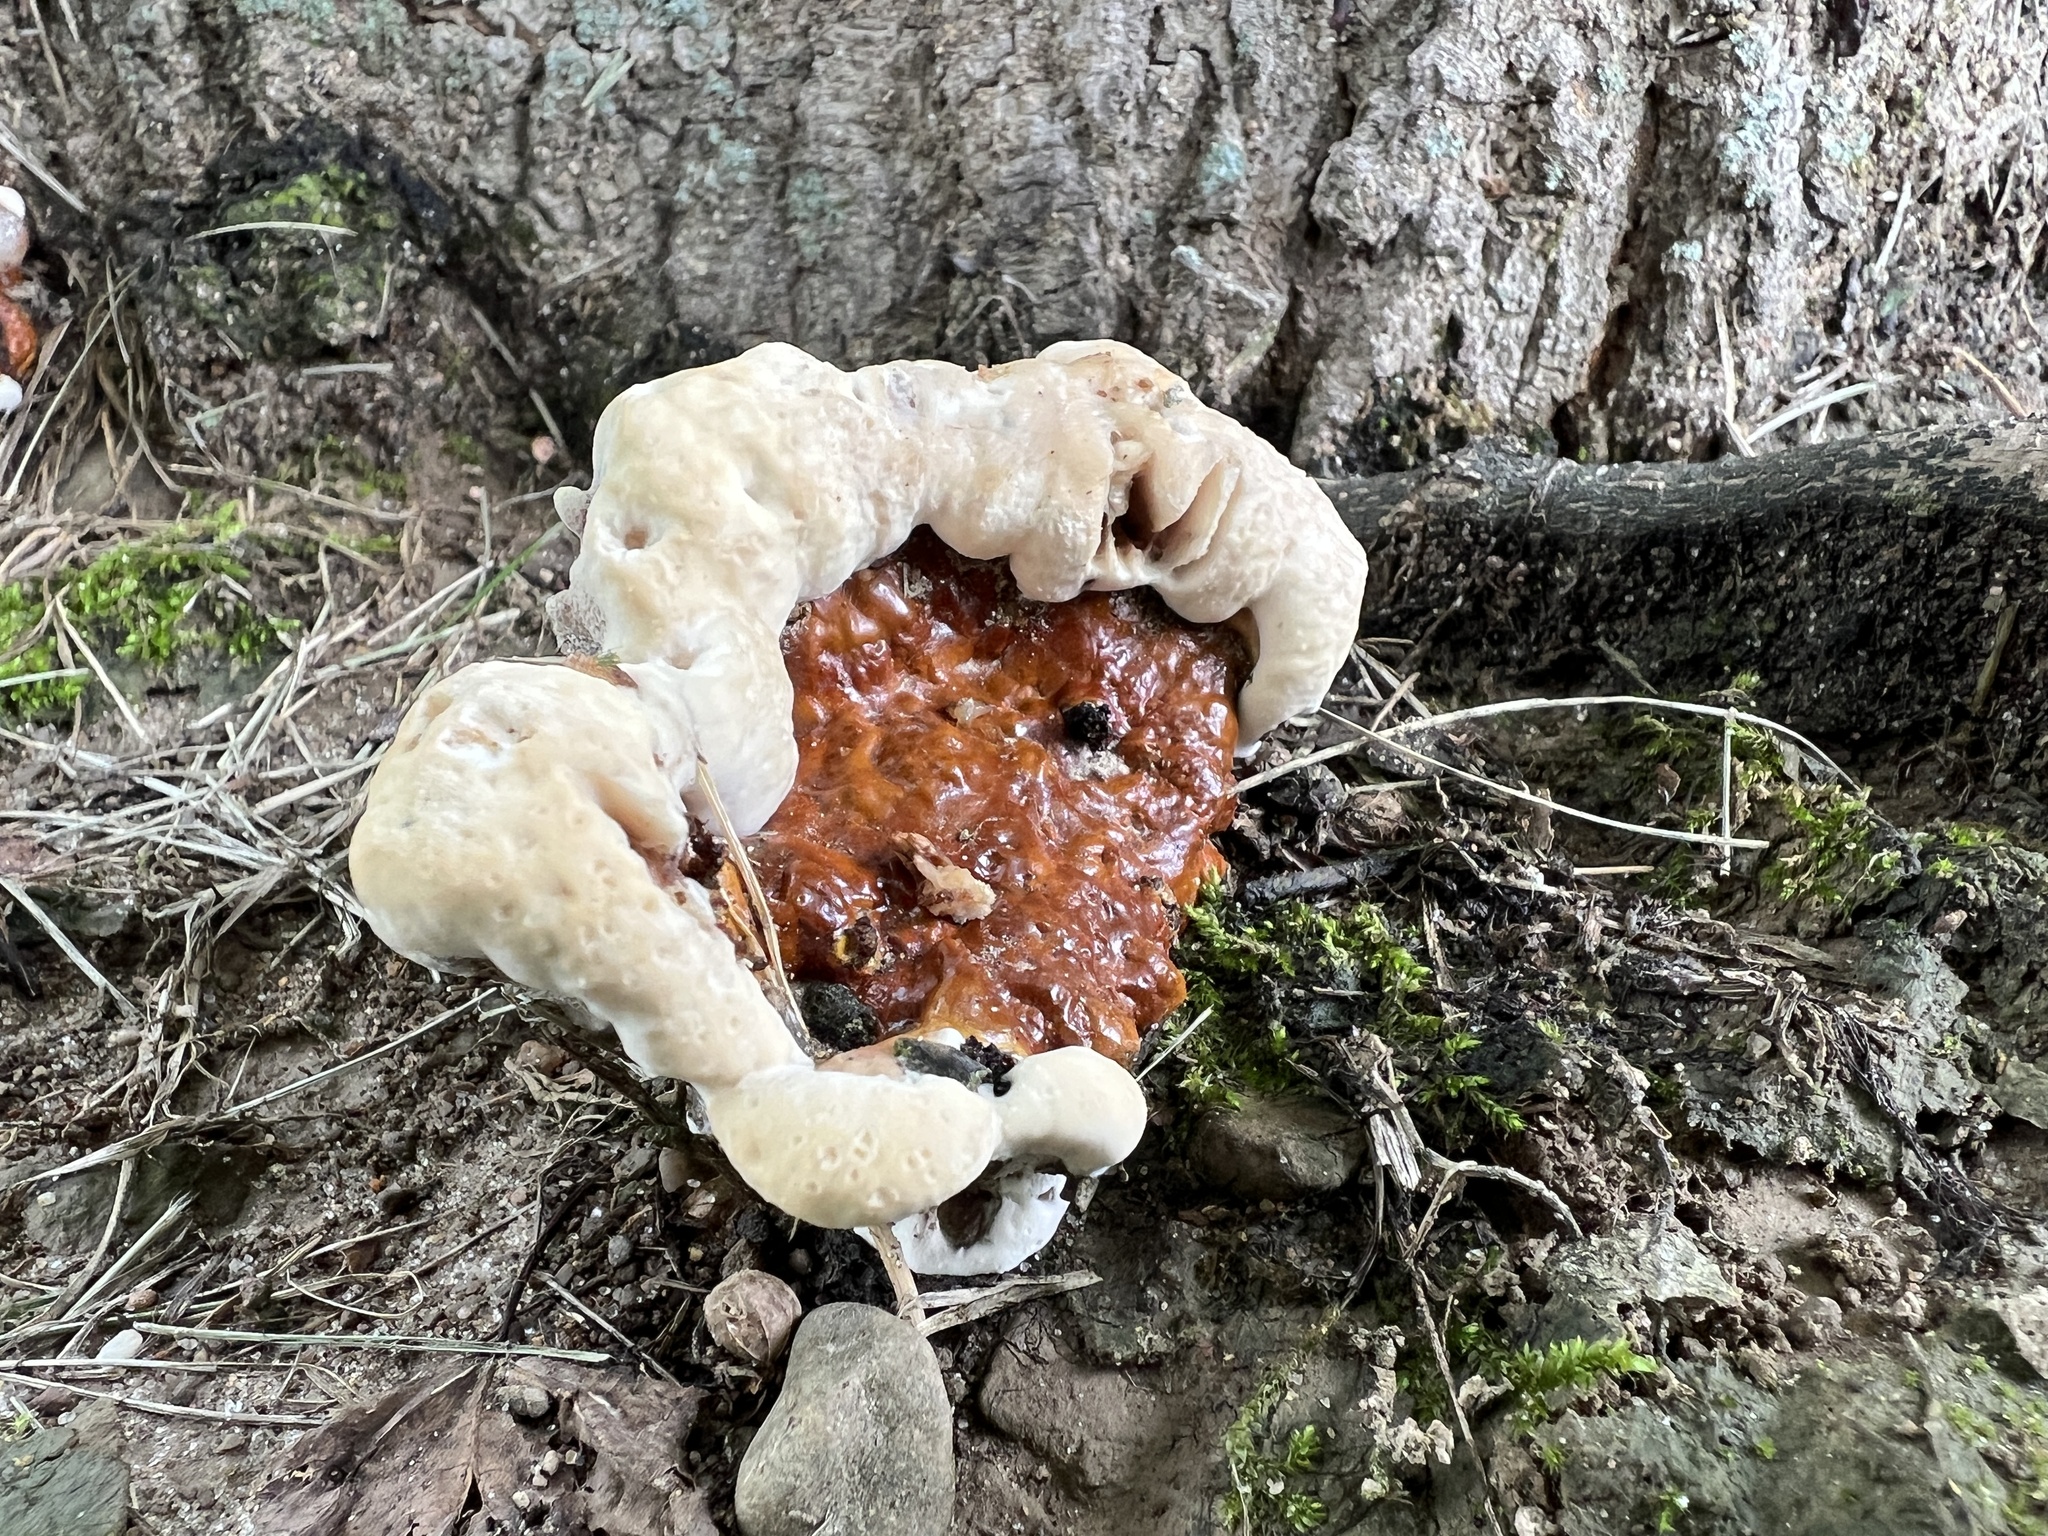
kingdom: Fungi
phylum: Basidiomycota
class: Agaricomycetes
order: Polyporales
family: Polyporaceae
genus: Ganoderma
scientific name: Ganoderma resinaceum
